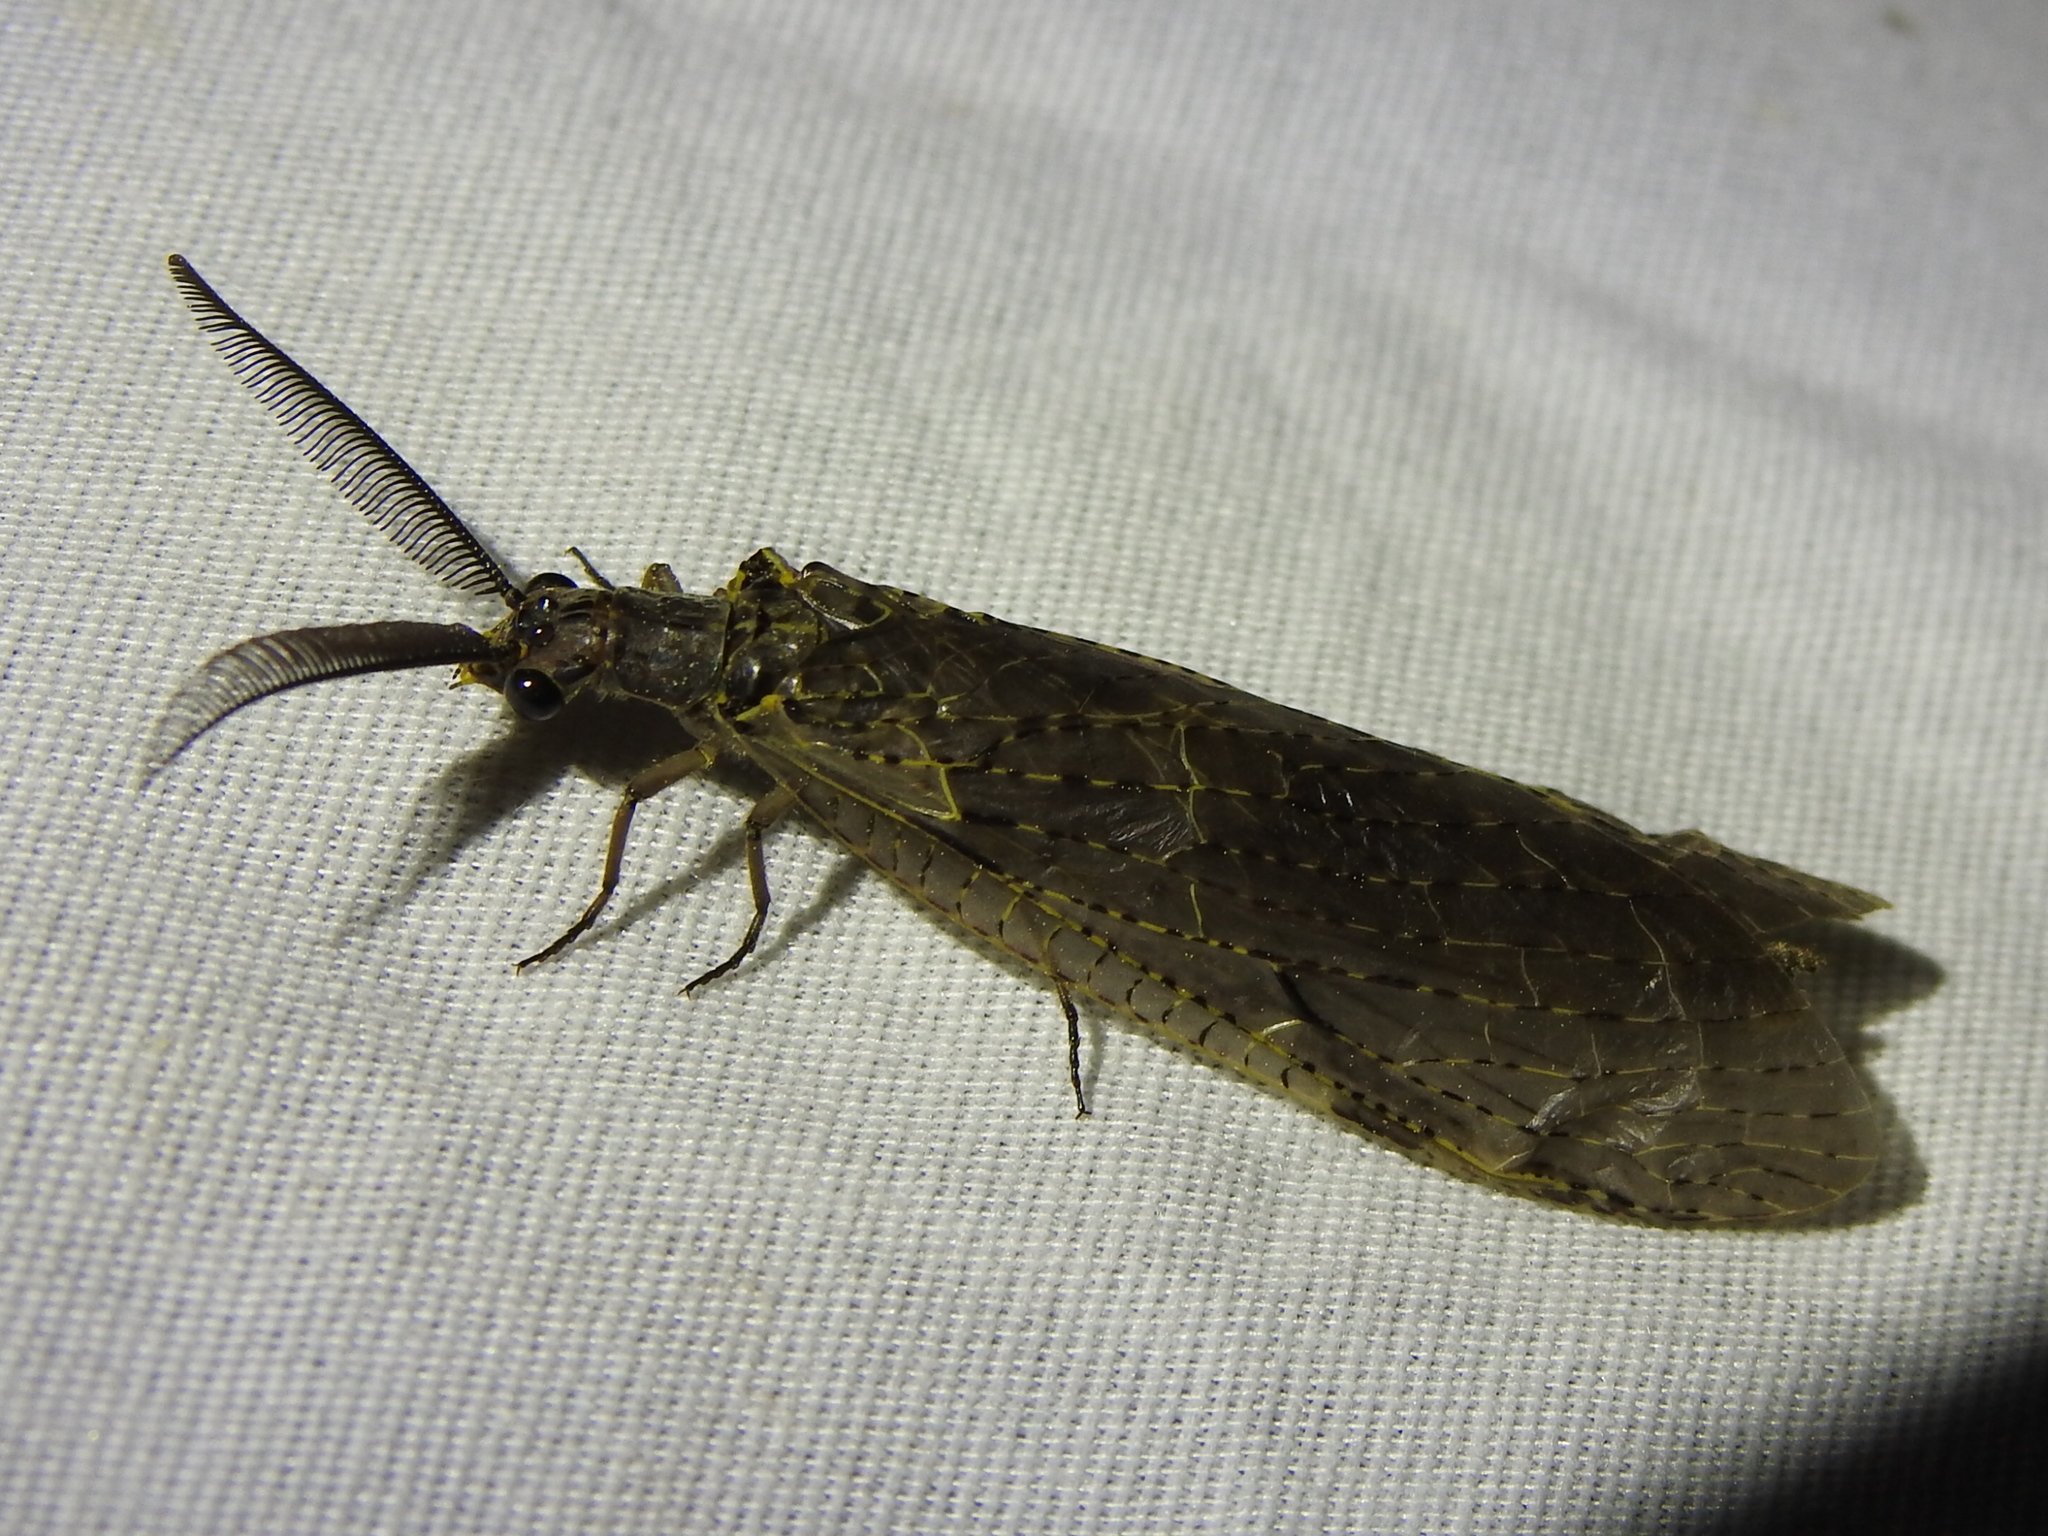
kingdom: Animalia
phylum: Arthropoda
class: Insecta
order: Megaloptera
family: Corydalidae
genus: Chauliodes
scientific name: Chauliodes rastricornis
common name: Spring fishfly
